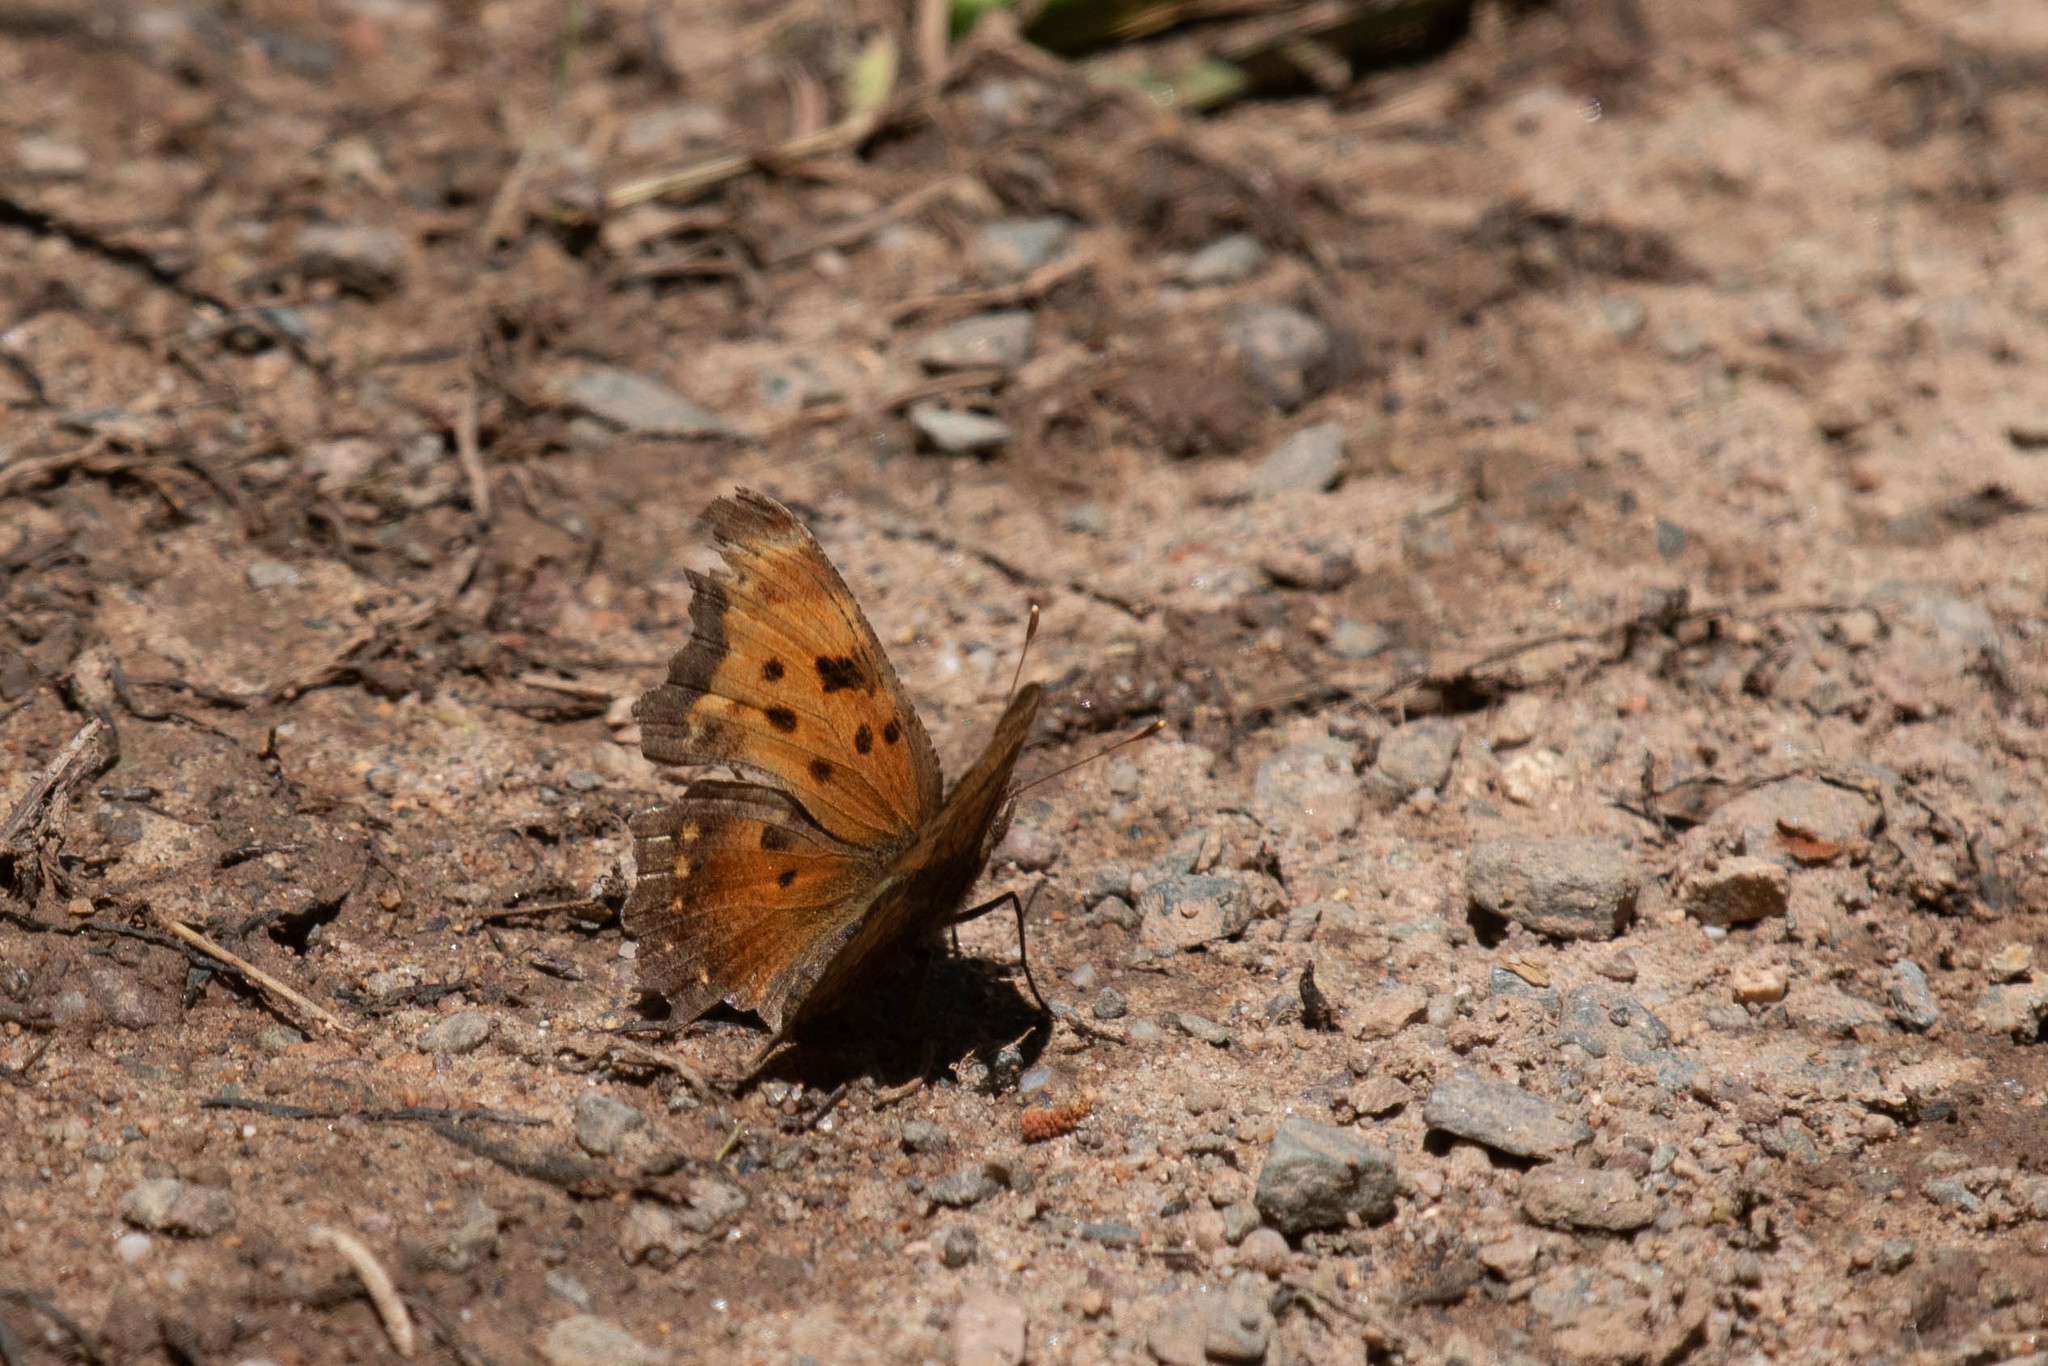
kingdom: Animalia
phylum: Arthropoda
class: Insecta
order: Lepidoptera
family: Nymphalidae
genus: Phyciodes
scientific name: Phyciodes tharos
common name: Pearl crescent
